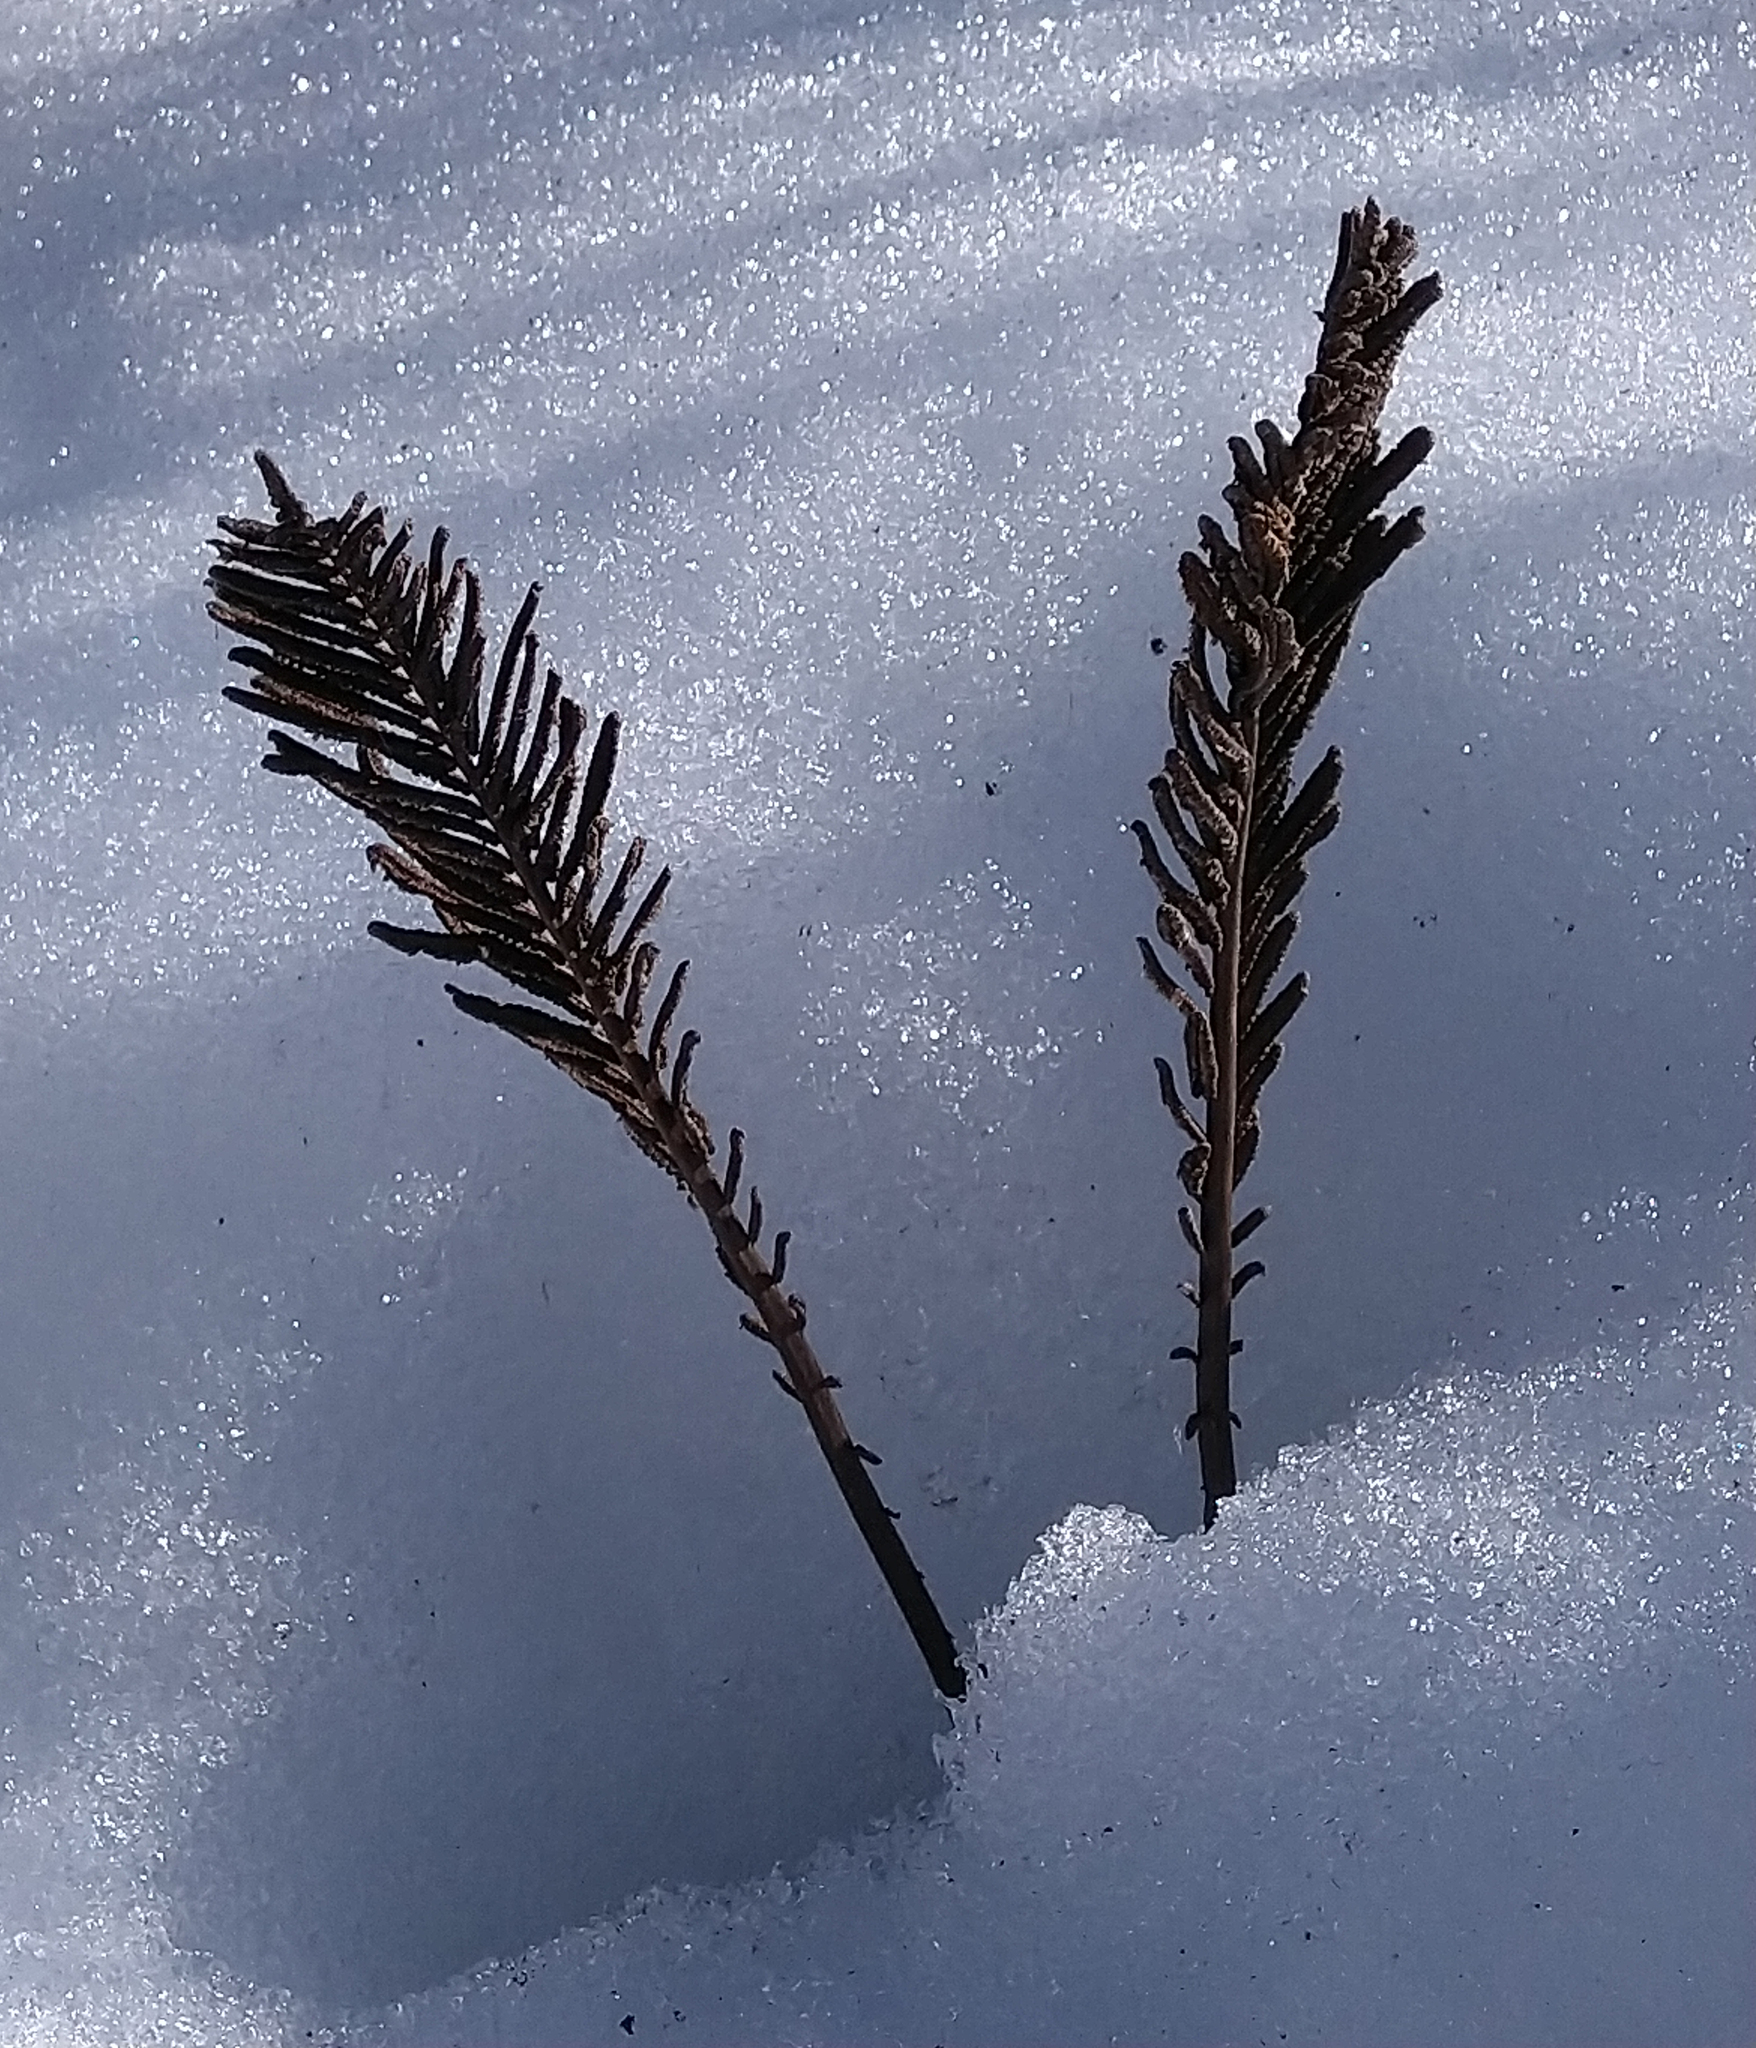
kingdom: Plantae
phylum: Tracheophyta
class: Polypodiopsida
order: Polypodiales
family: Onocleaceae
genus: Matteuccia
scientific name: Matteuccia struthiopteris
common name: Ostrich fern
